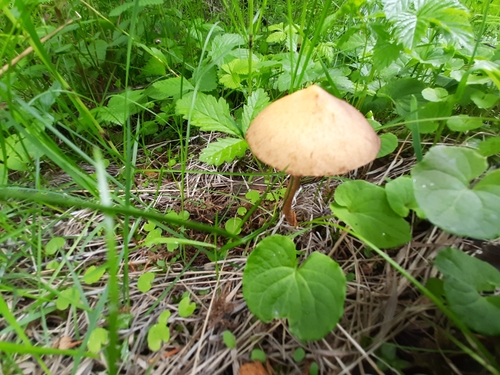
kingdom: Fungi
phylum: Basidiomycota
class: Agaricomycetes
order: Agaricales
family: Strophariaceae
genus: Leratiomyces
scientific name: Leratiomyces magnivelaris
